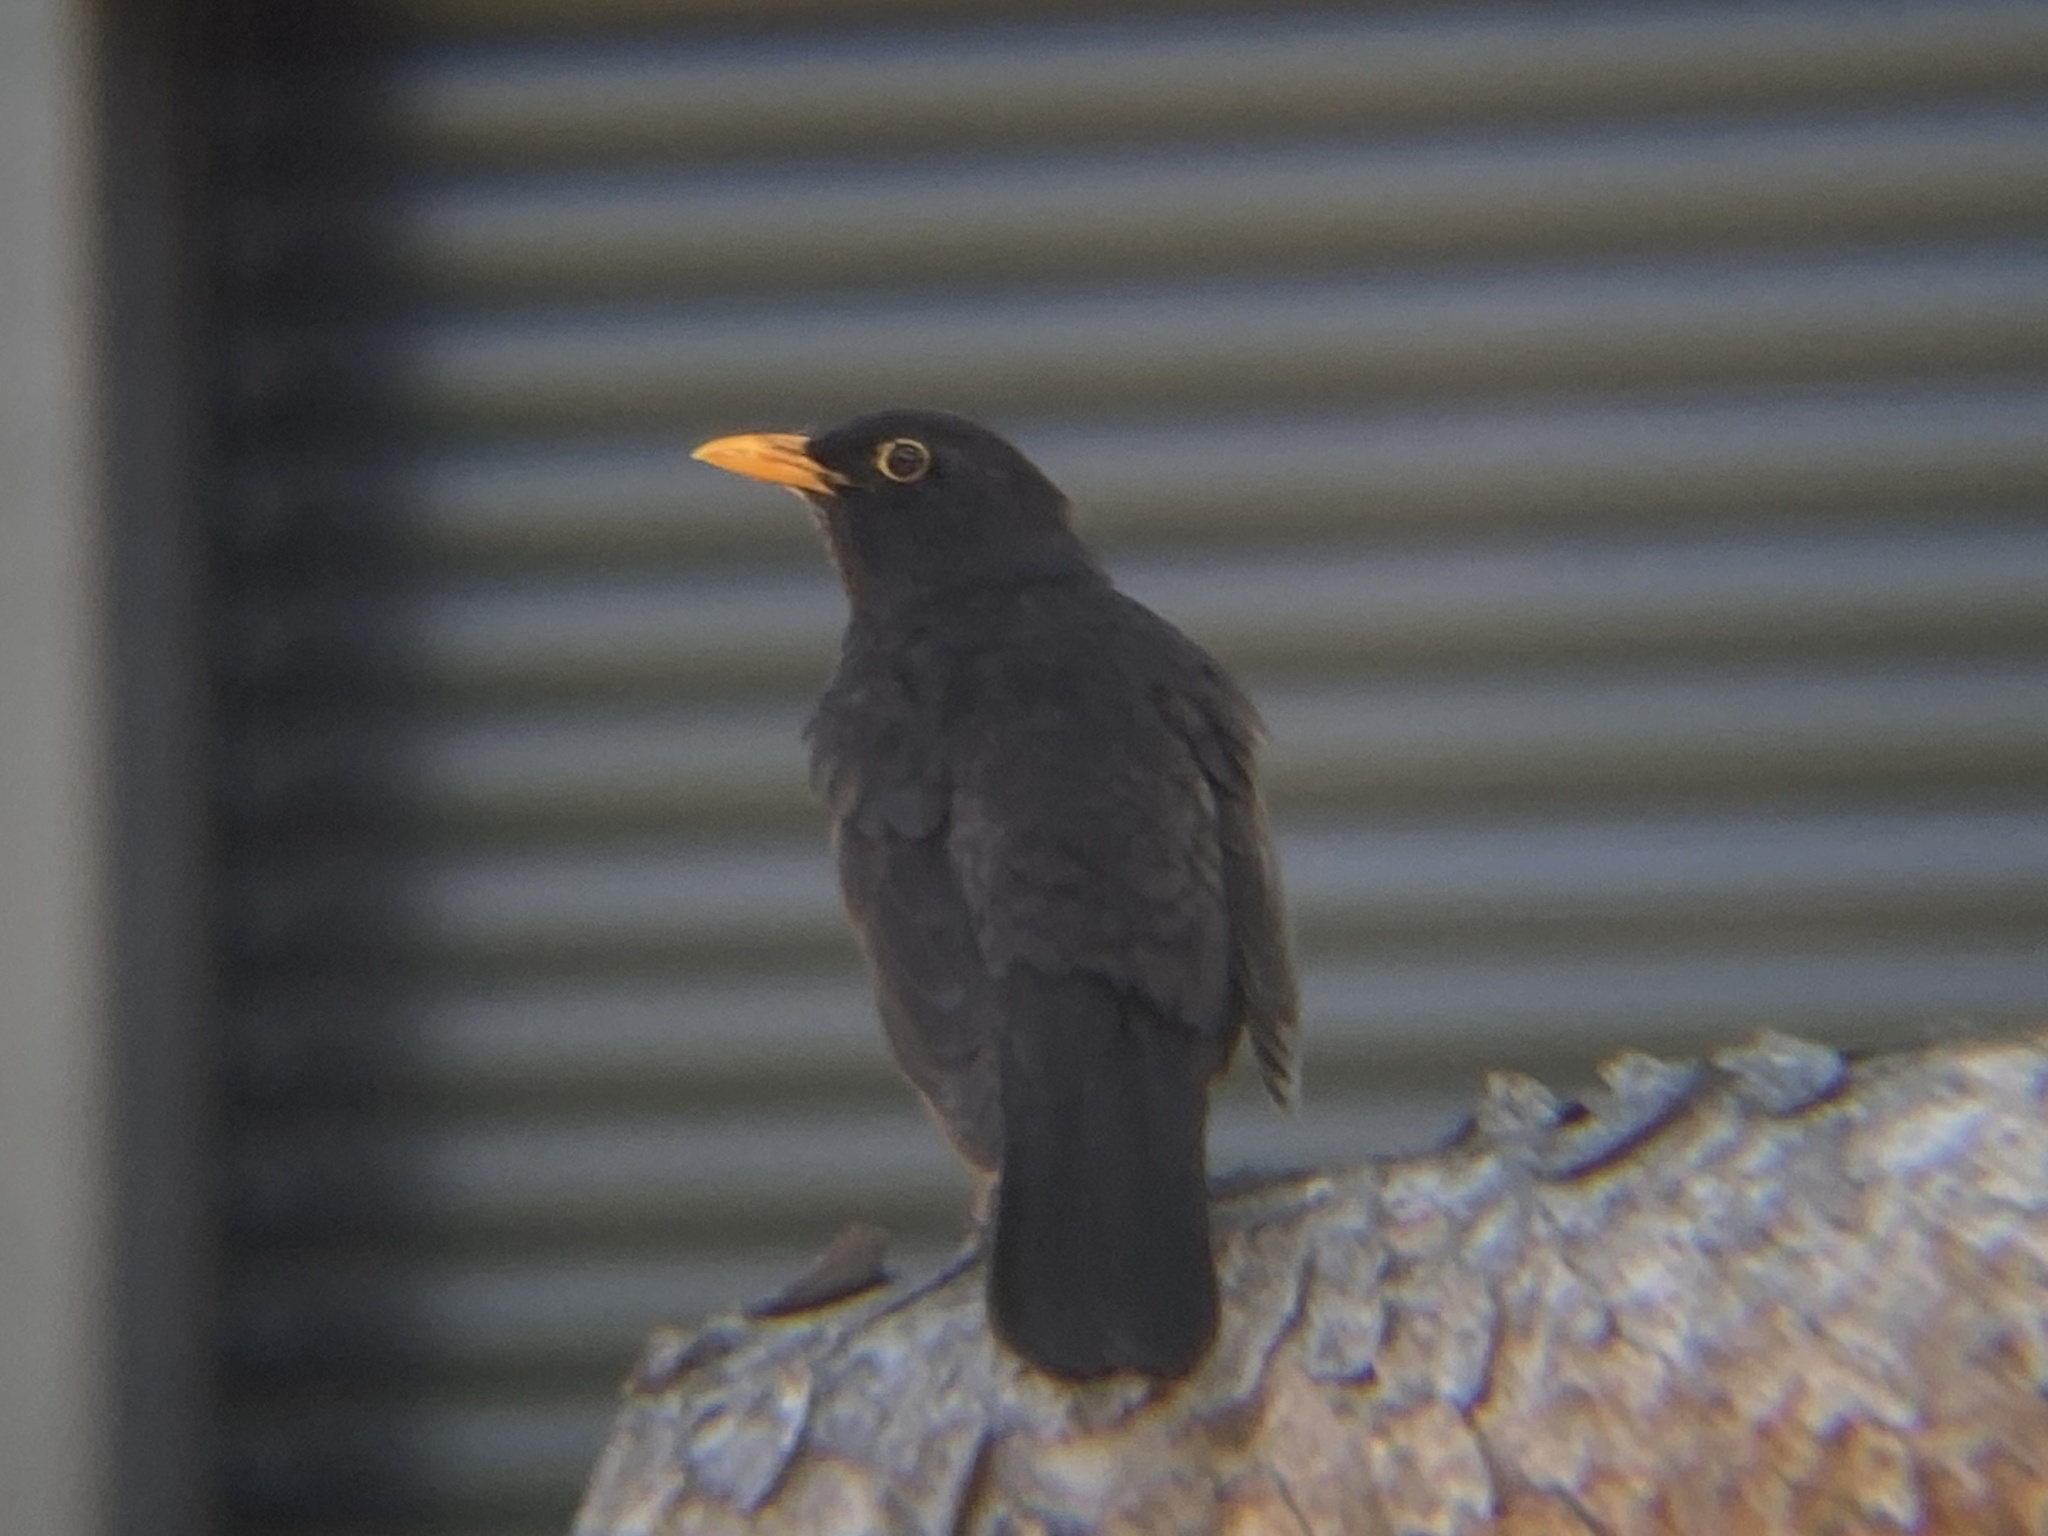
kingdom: Animalia
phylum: Chordata
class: Aves
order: Passeriformes
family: Turdidae
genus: Turdus
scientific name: Turdus merula
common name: Common blackbird
